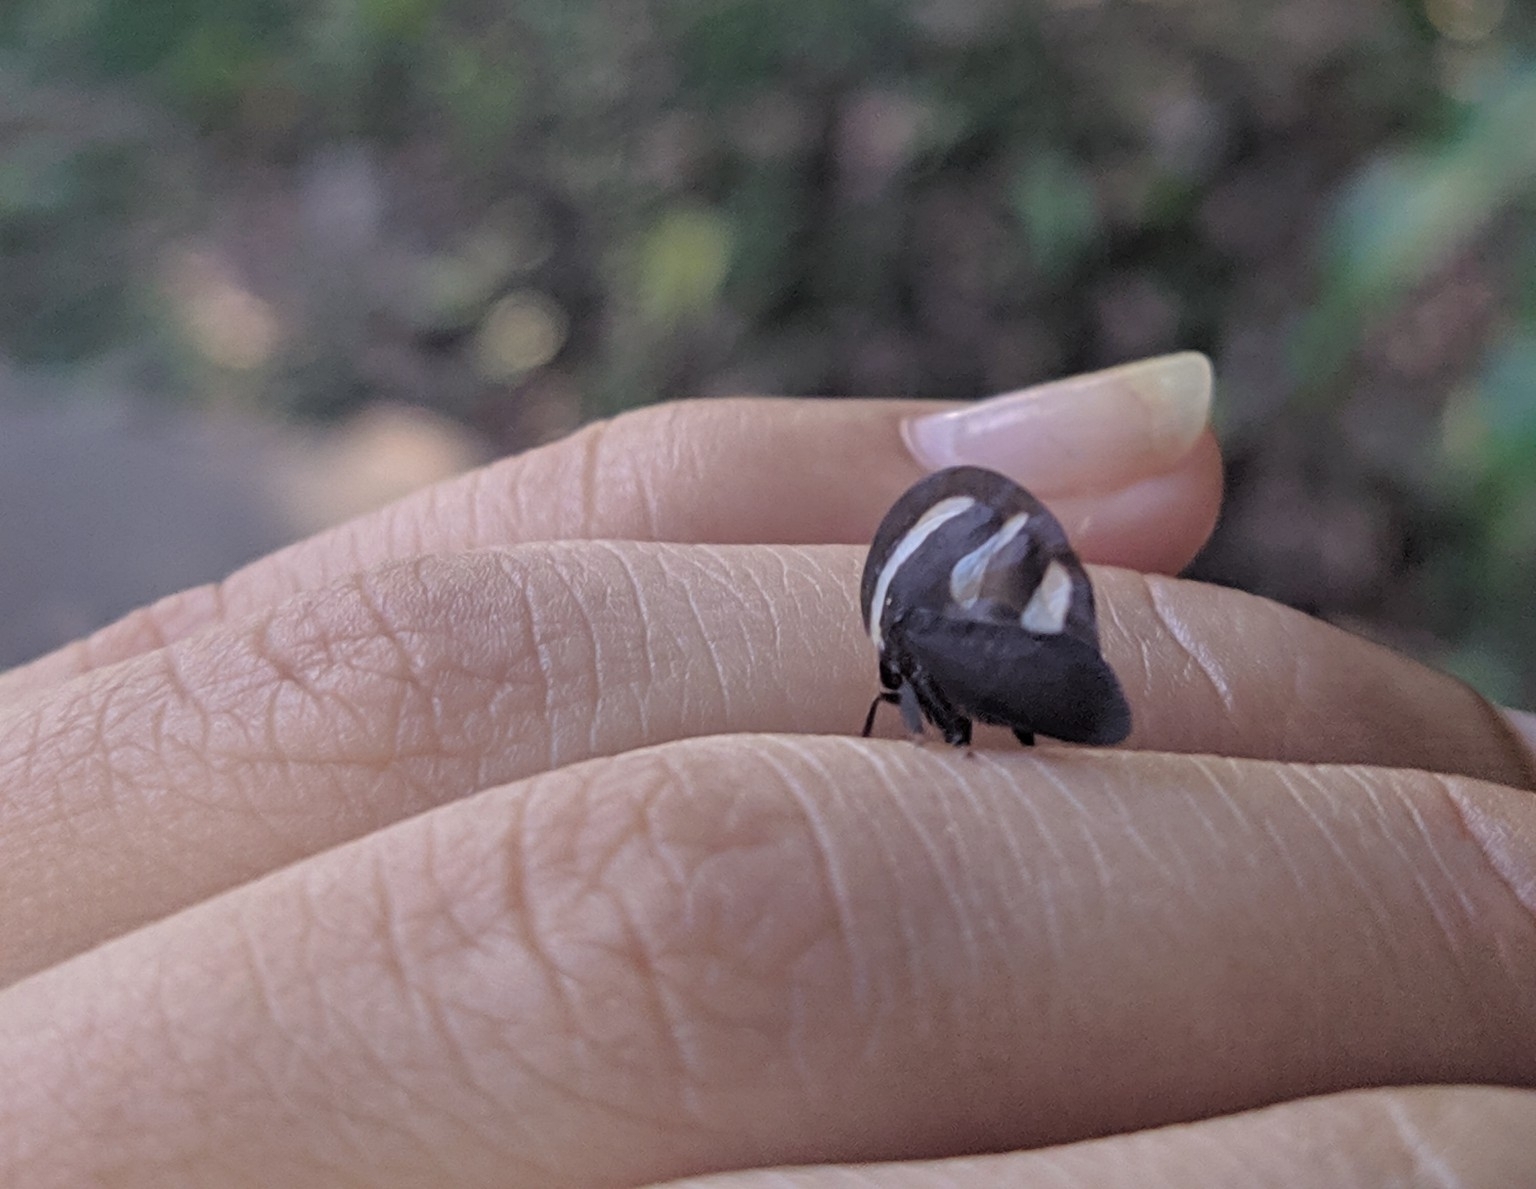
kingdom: Animalia
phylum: Arthropoda
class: Insecta
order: Hemiptera
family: Membracidae
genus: Membracis
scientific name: Membracis
